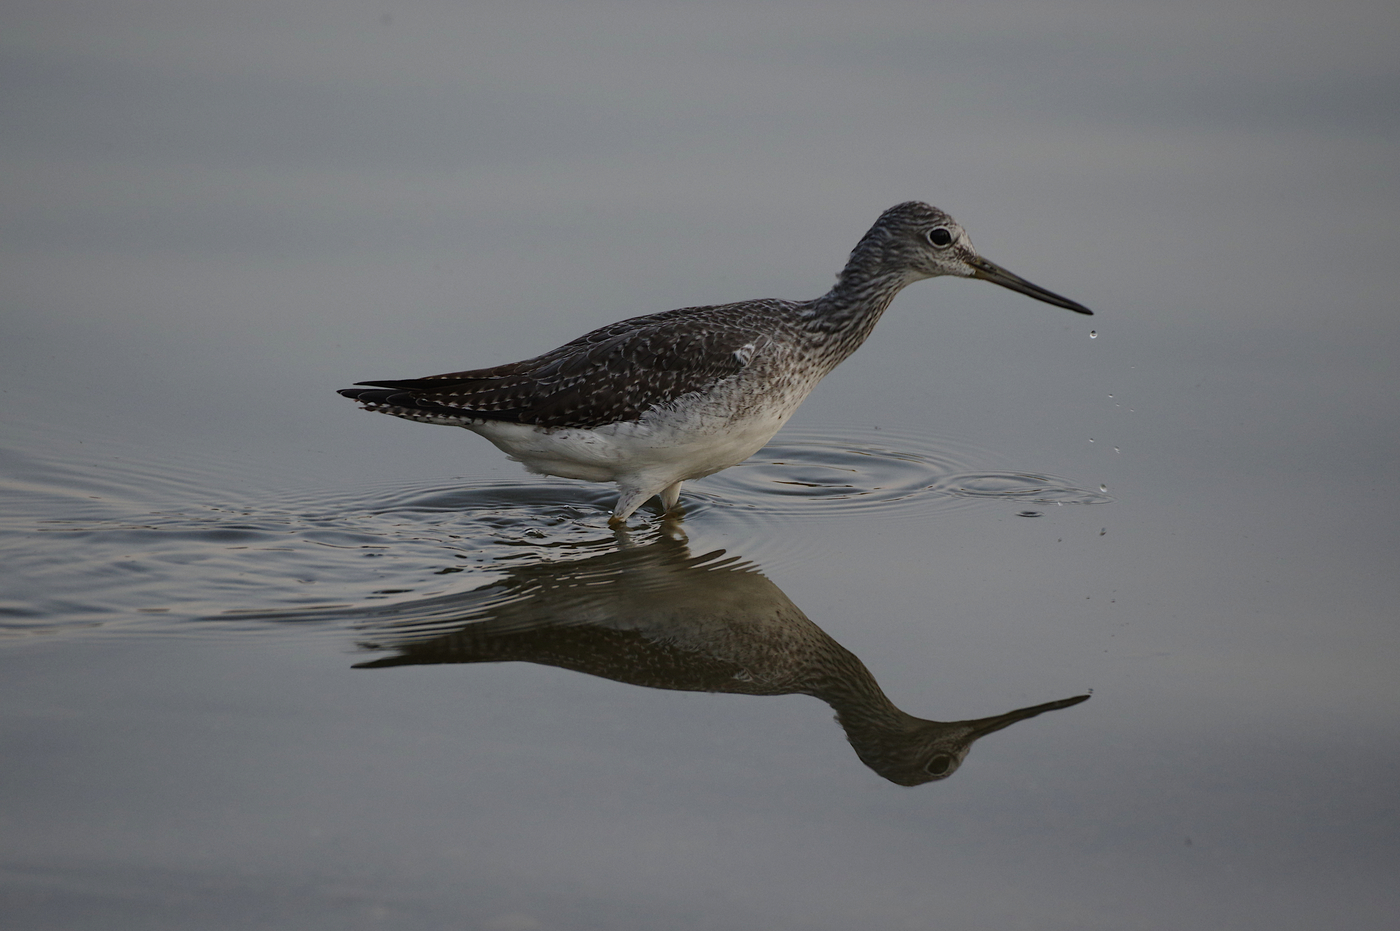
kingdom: Animalia
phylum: Chordata
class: Aves
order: Charadriiformes
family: Scolopacidae
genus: Tringa
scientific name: Tringa melanoleuca
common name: Greater yellowlegs
